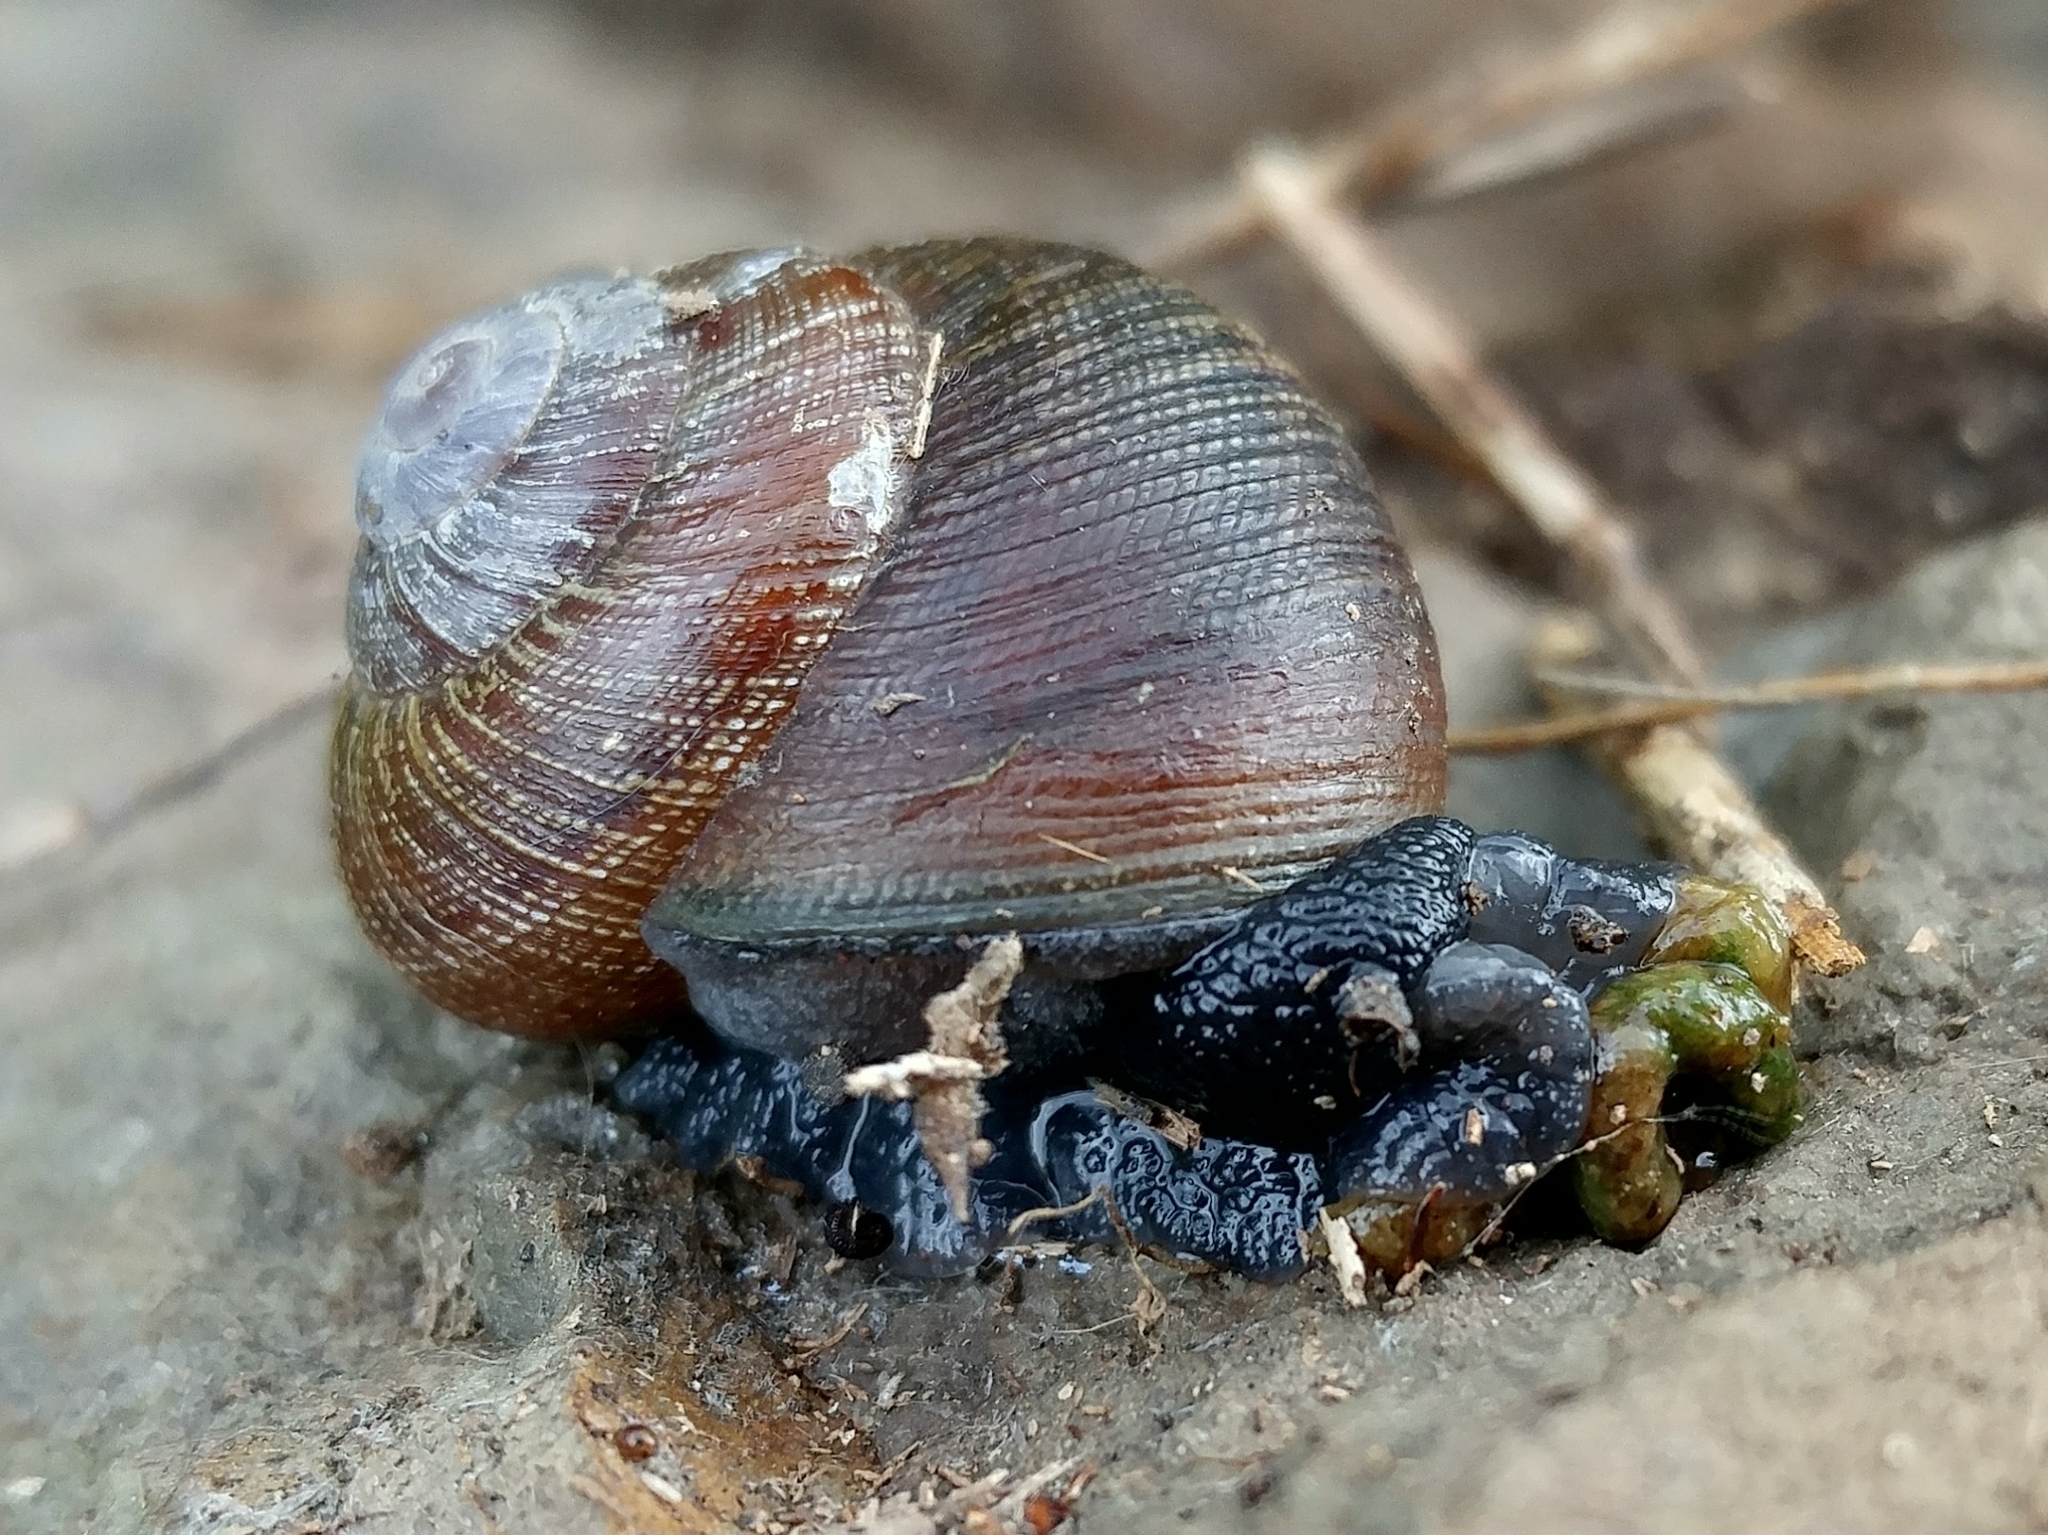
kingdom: Animalia
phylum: Mollusca
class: Gastropoda
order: Stylommatophora
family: Xanthonychidae
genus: Xerarionta
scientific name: Xerarionta intercisa
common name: Plain cactus snail
